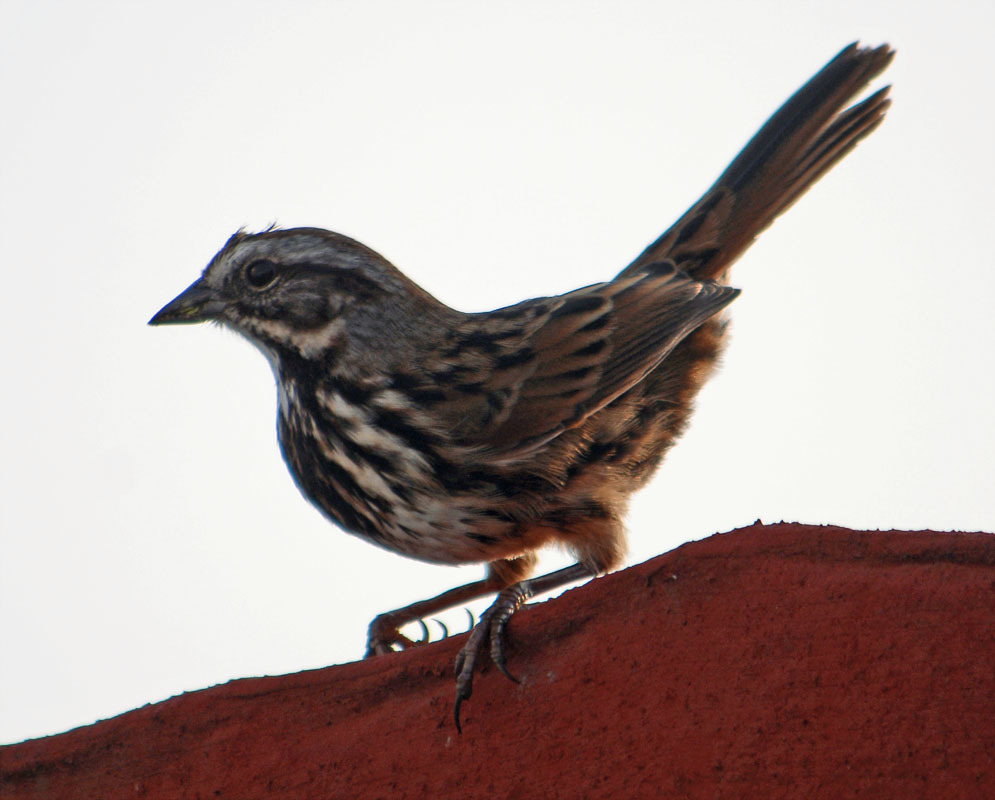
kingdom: Animalia
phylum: Chordata
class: Aves
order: Passeriformes
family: Passerellidae
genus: Melospiza
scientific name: Melospiza melodia
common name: Song sparrow
